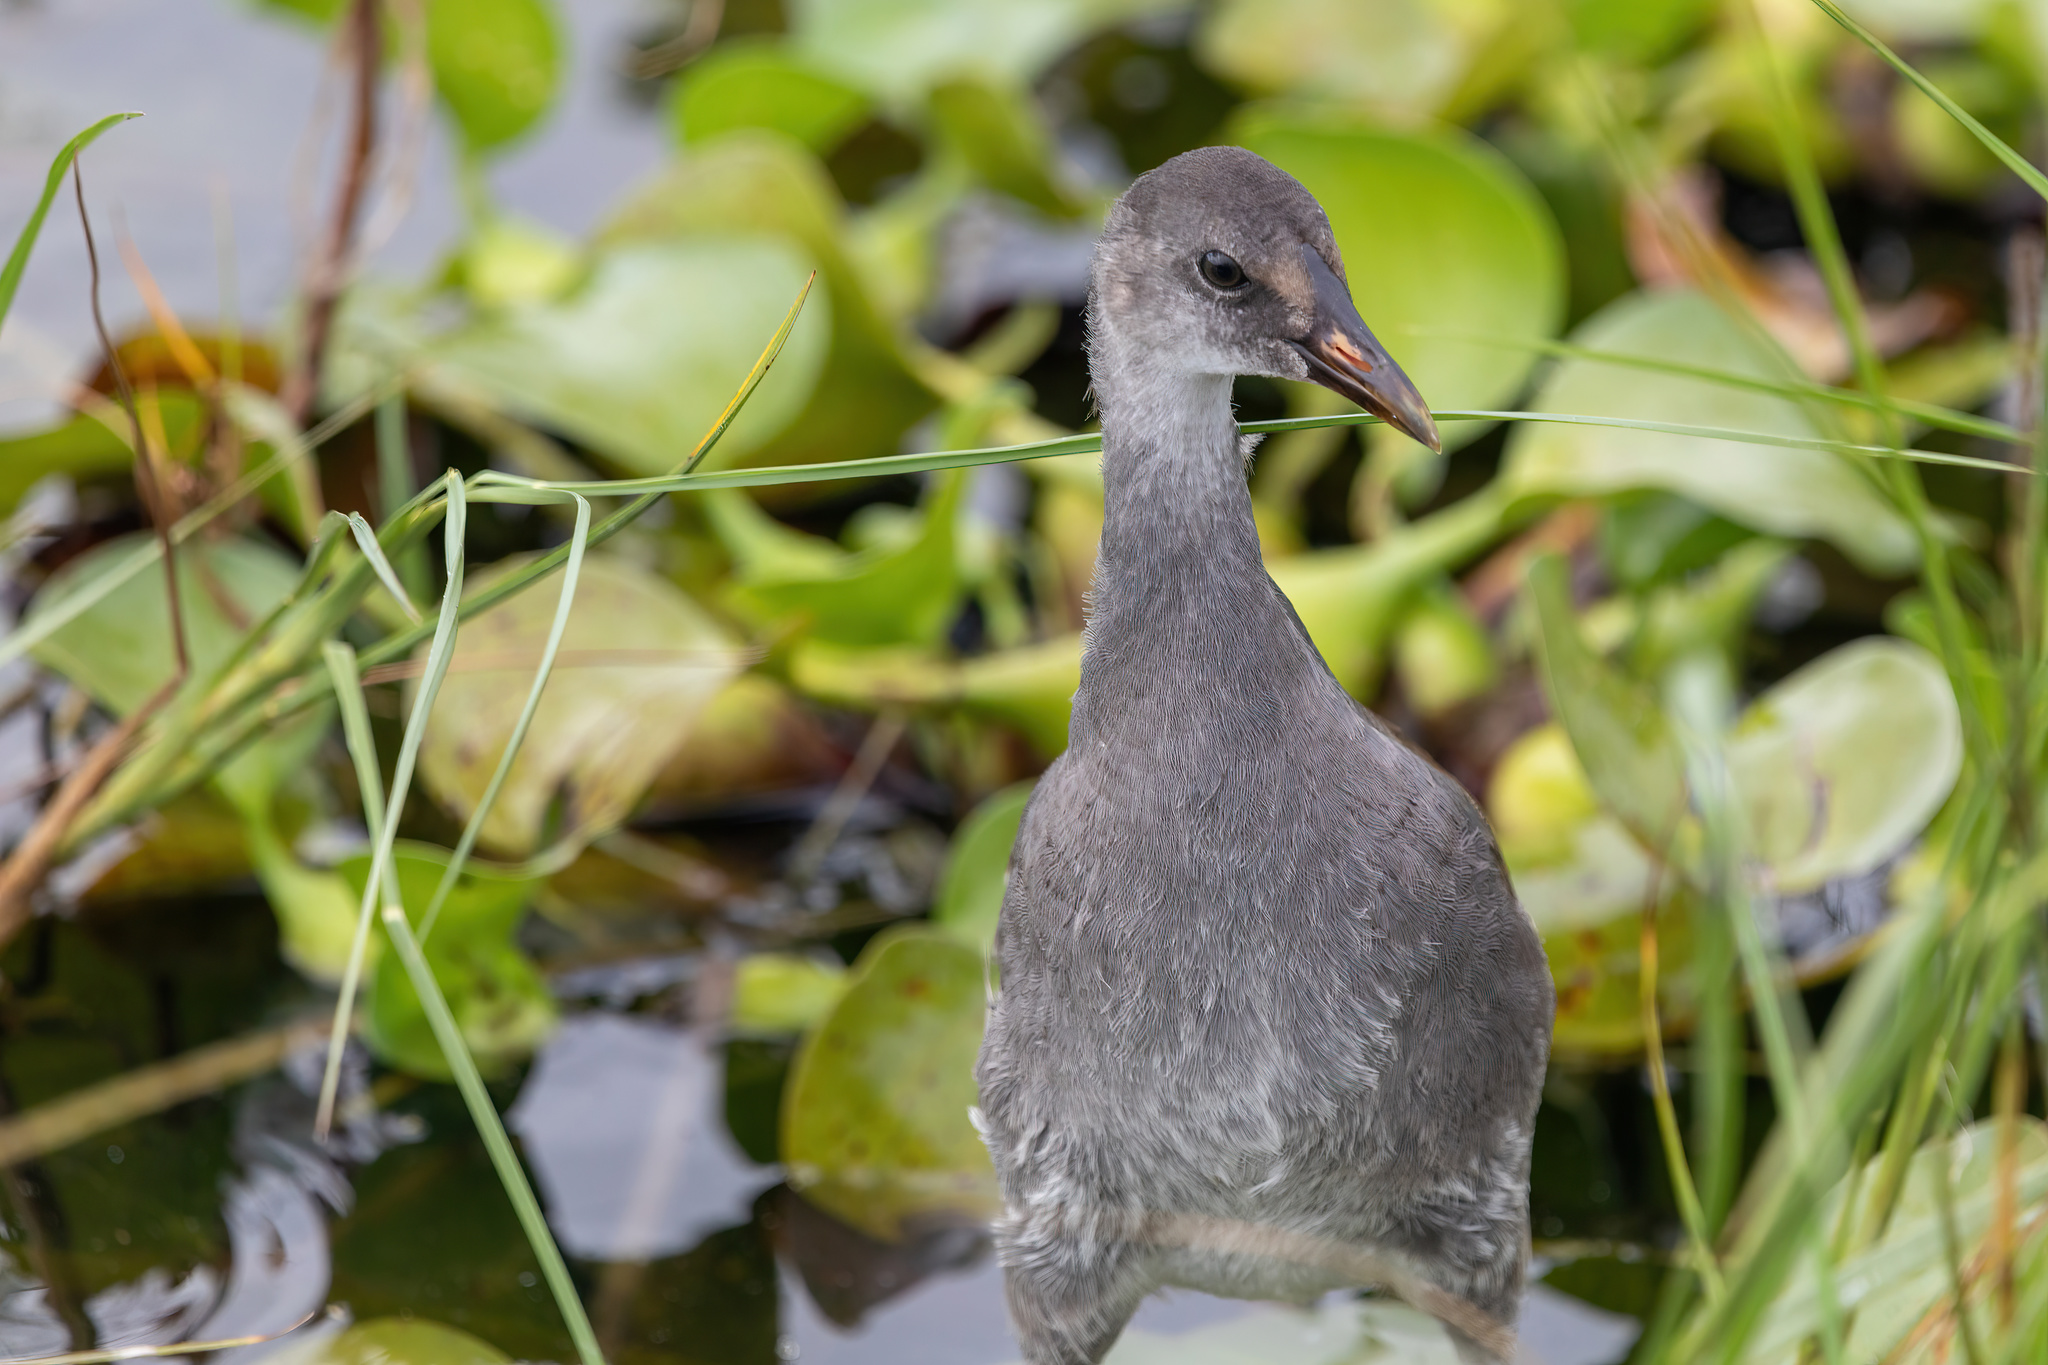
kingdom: Animalia
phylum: Chordata
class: Aves
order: Gruiformes
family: Rallidae
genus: Gallinula
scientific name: Gallinula chloropus
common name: Common moorhen
